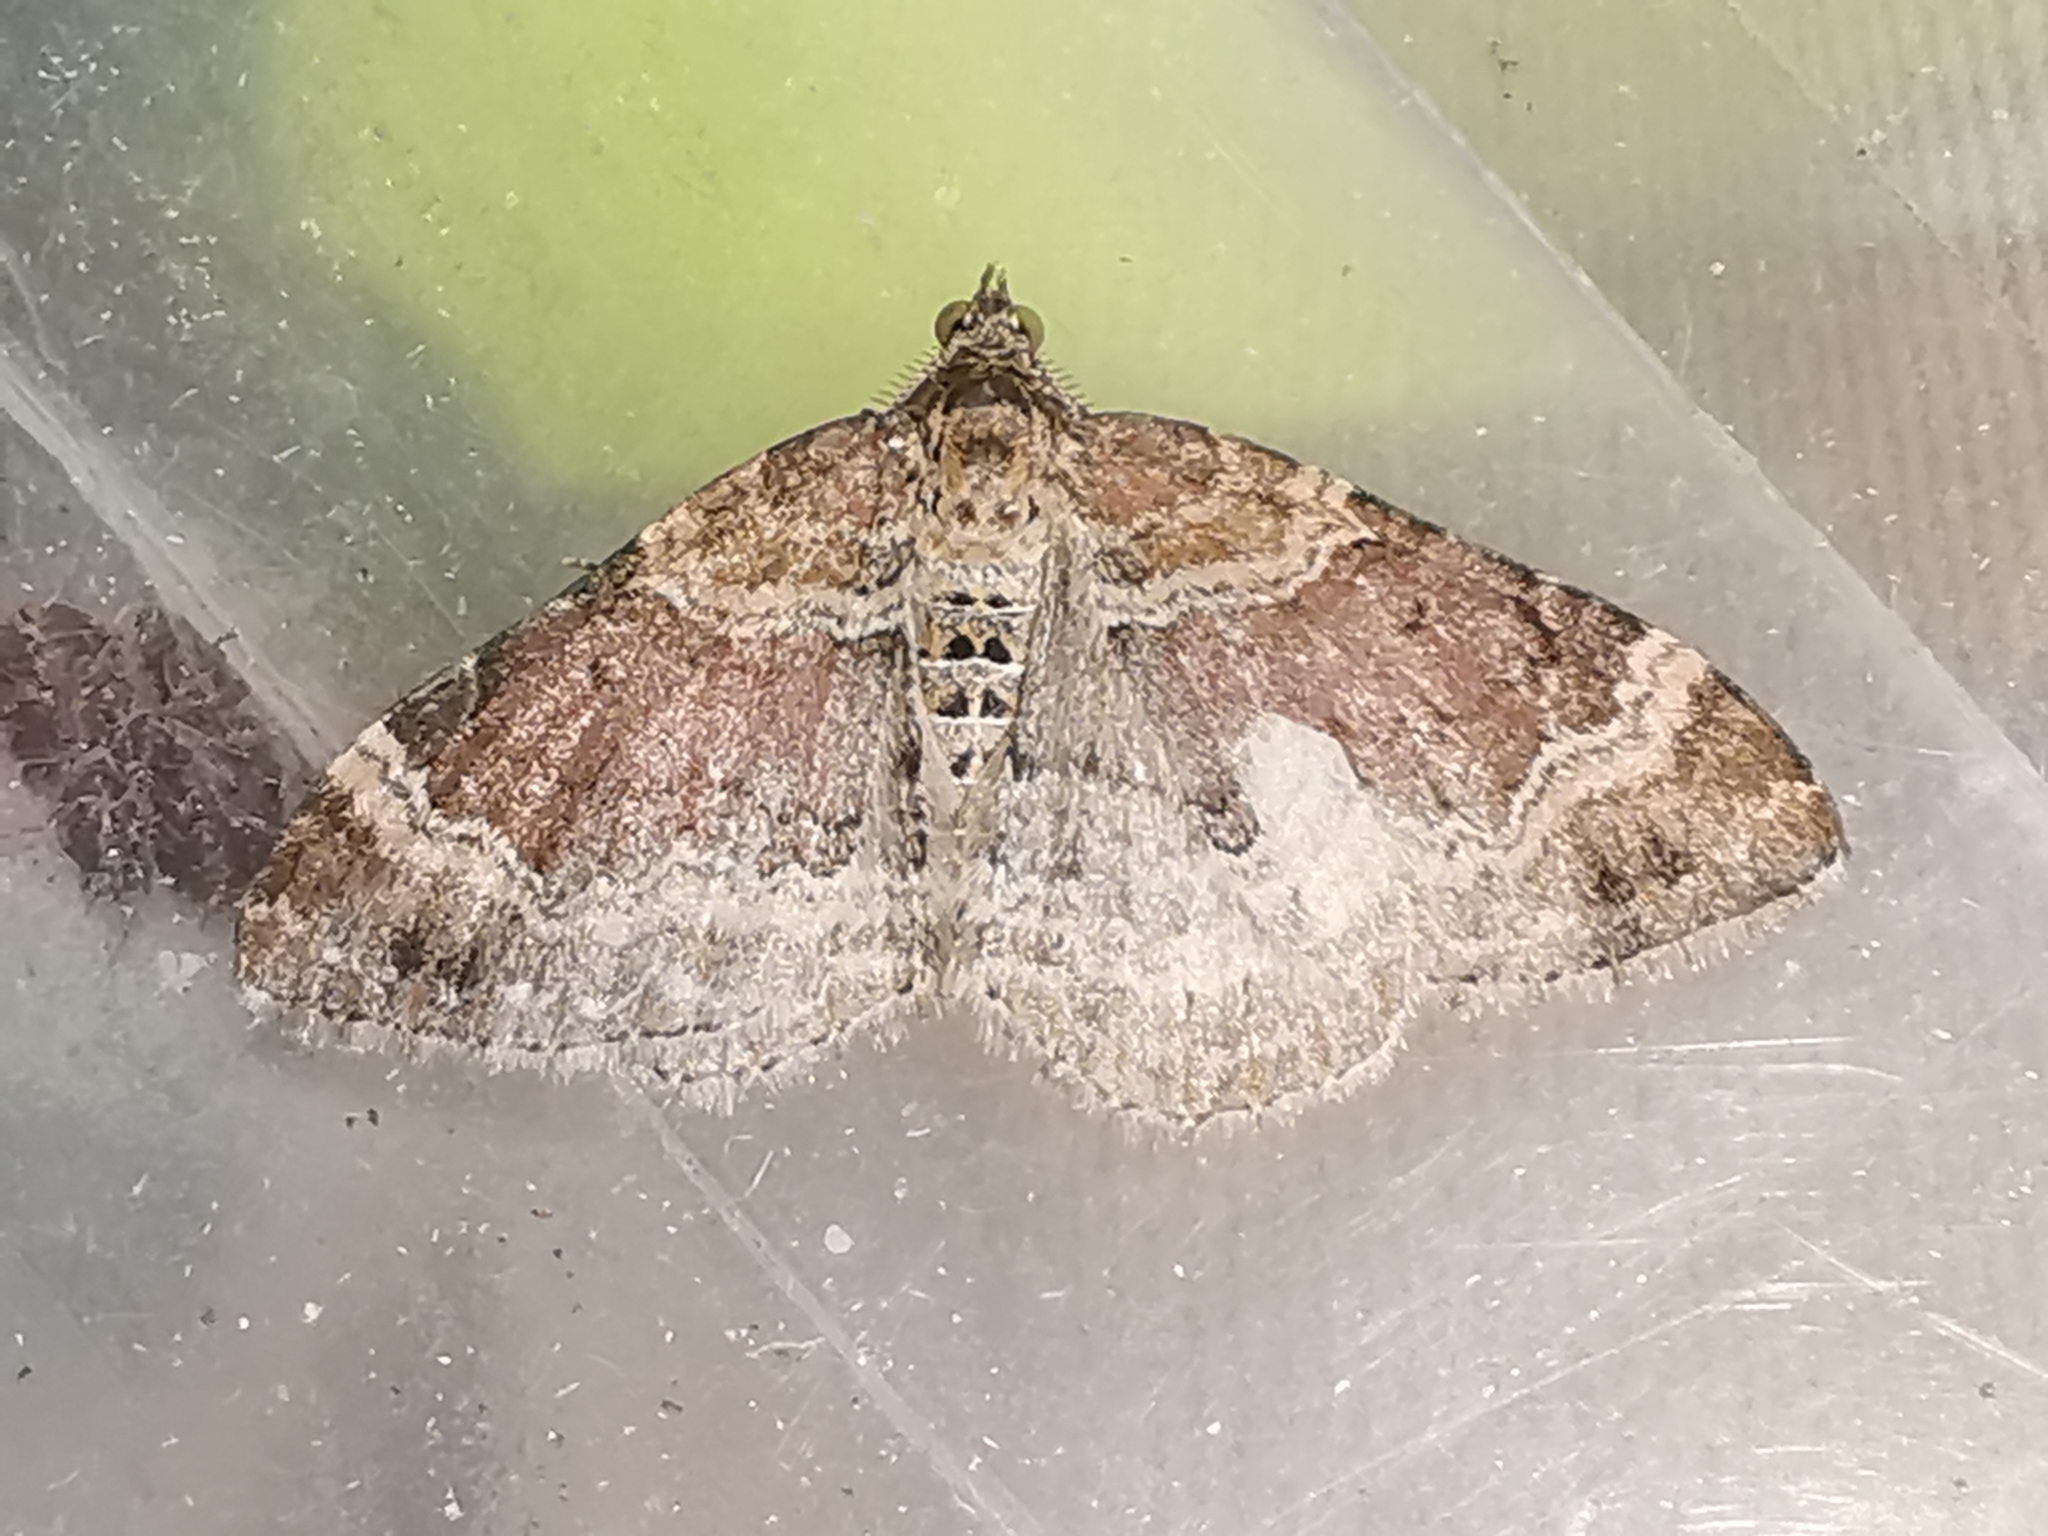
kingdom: Animalia
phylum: Arthropoda
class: Insecta
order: Lepidoptera
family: Geometridae
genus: Xanthorhoe
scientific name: Xanthorhoe spadicearia
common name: Red twin-spot carpet
